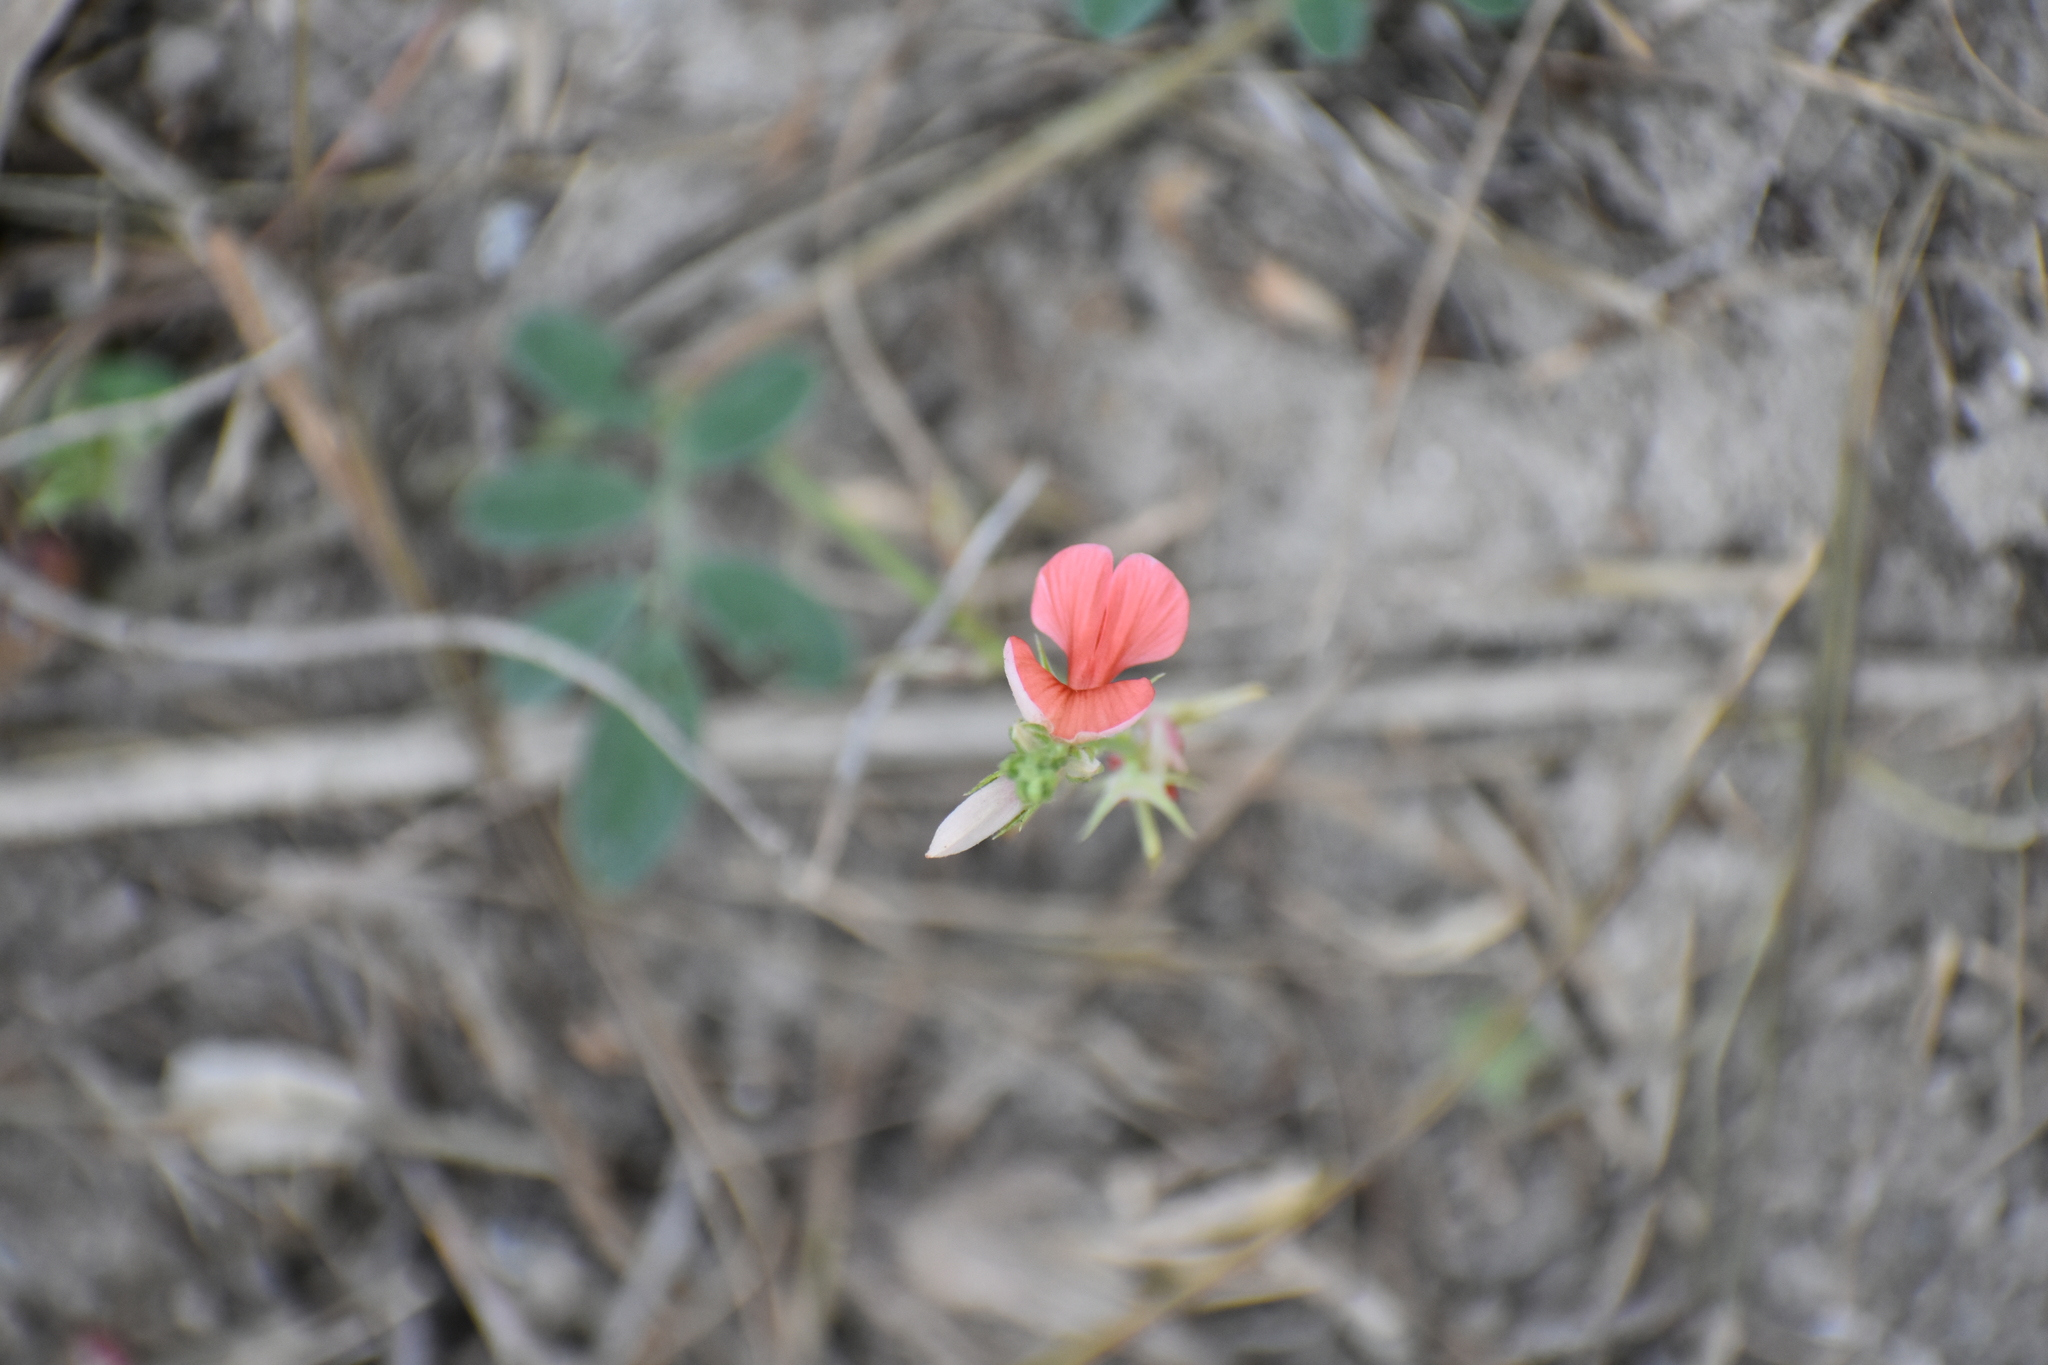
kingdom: Plantae
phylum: Tracheophyta
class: Magnoliopsida
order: Fabales
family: Fabaceae
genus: Indigofera
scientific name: Indigofera miniata
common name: Coast indigo
